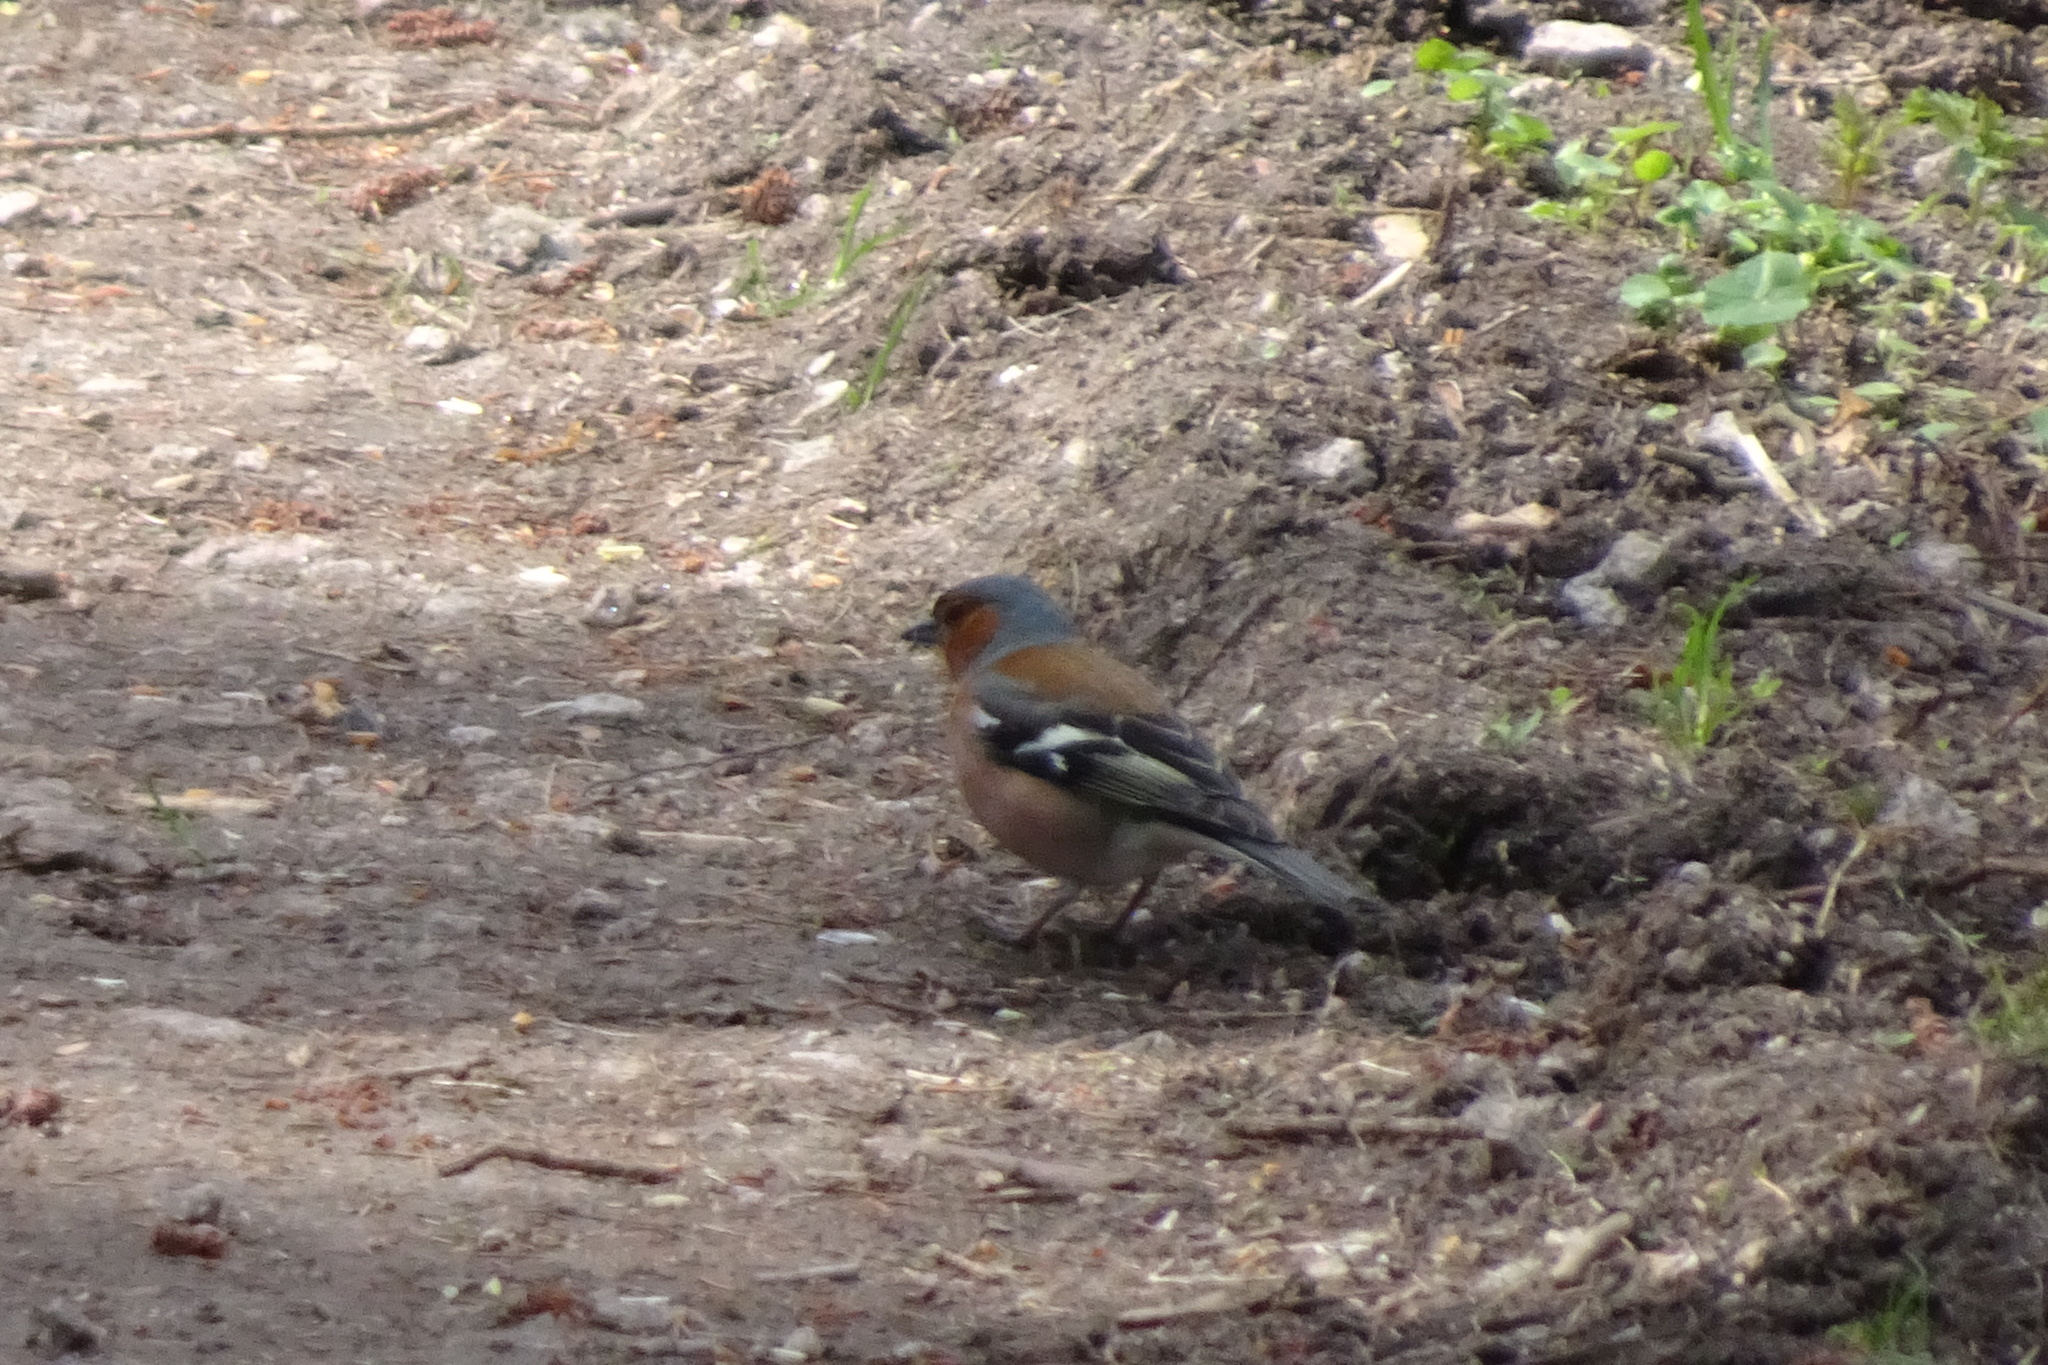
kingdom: Animalia
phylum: Chordata
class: Aves
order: Passeriformes
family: Fringillidae
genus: Fringilla
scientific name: Fringilla coelebs
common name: Common chaffinch
